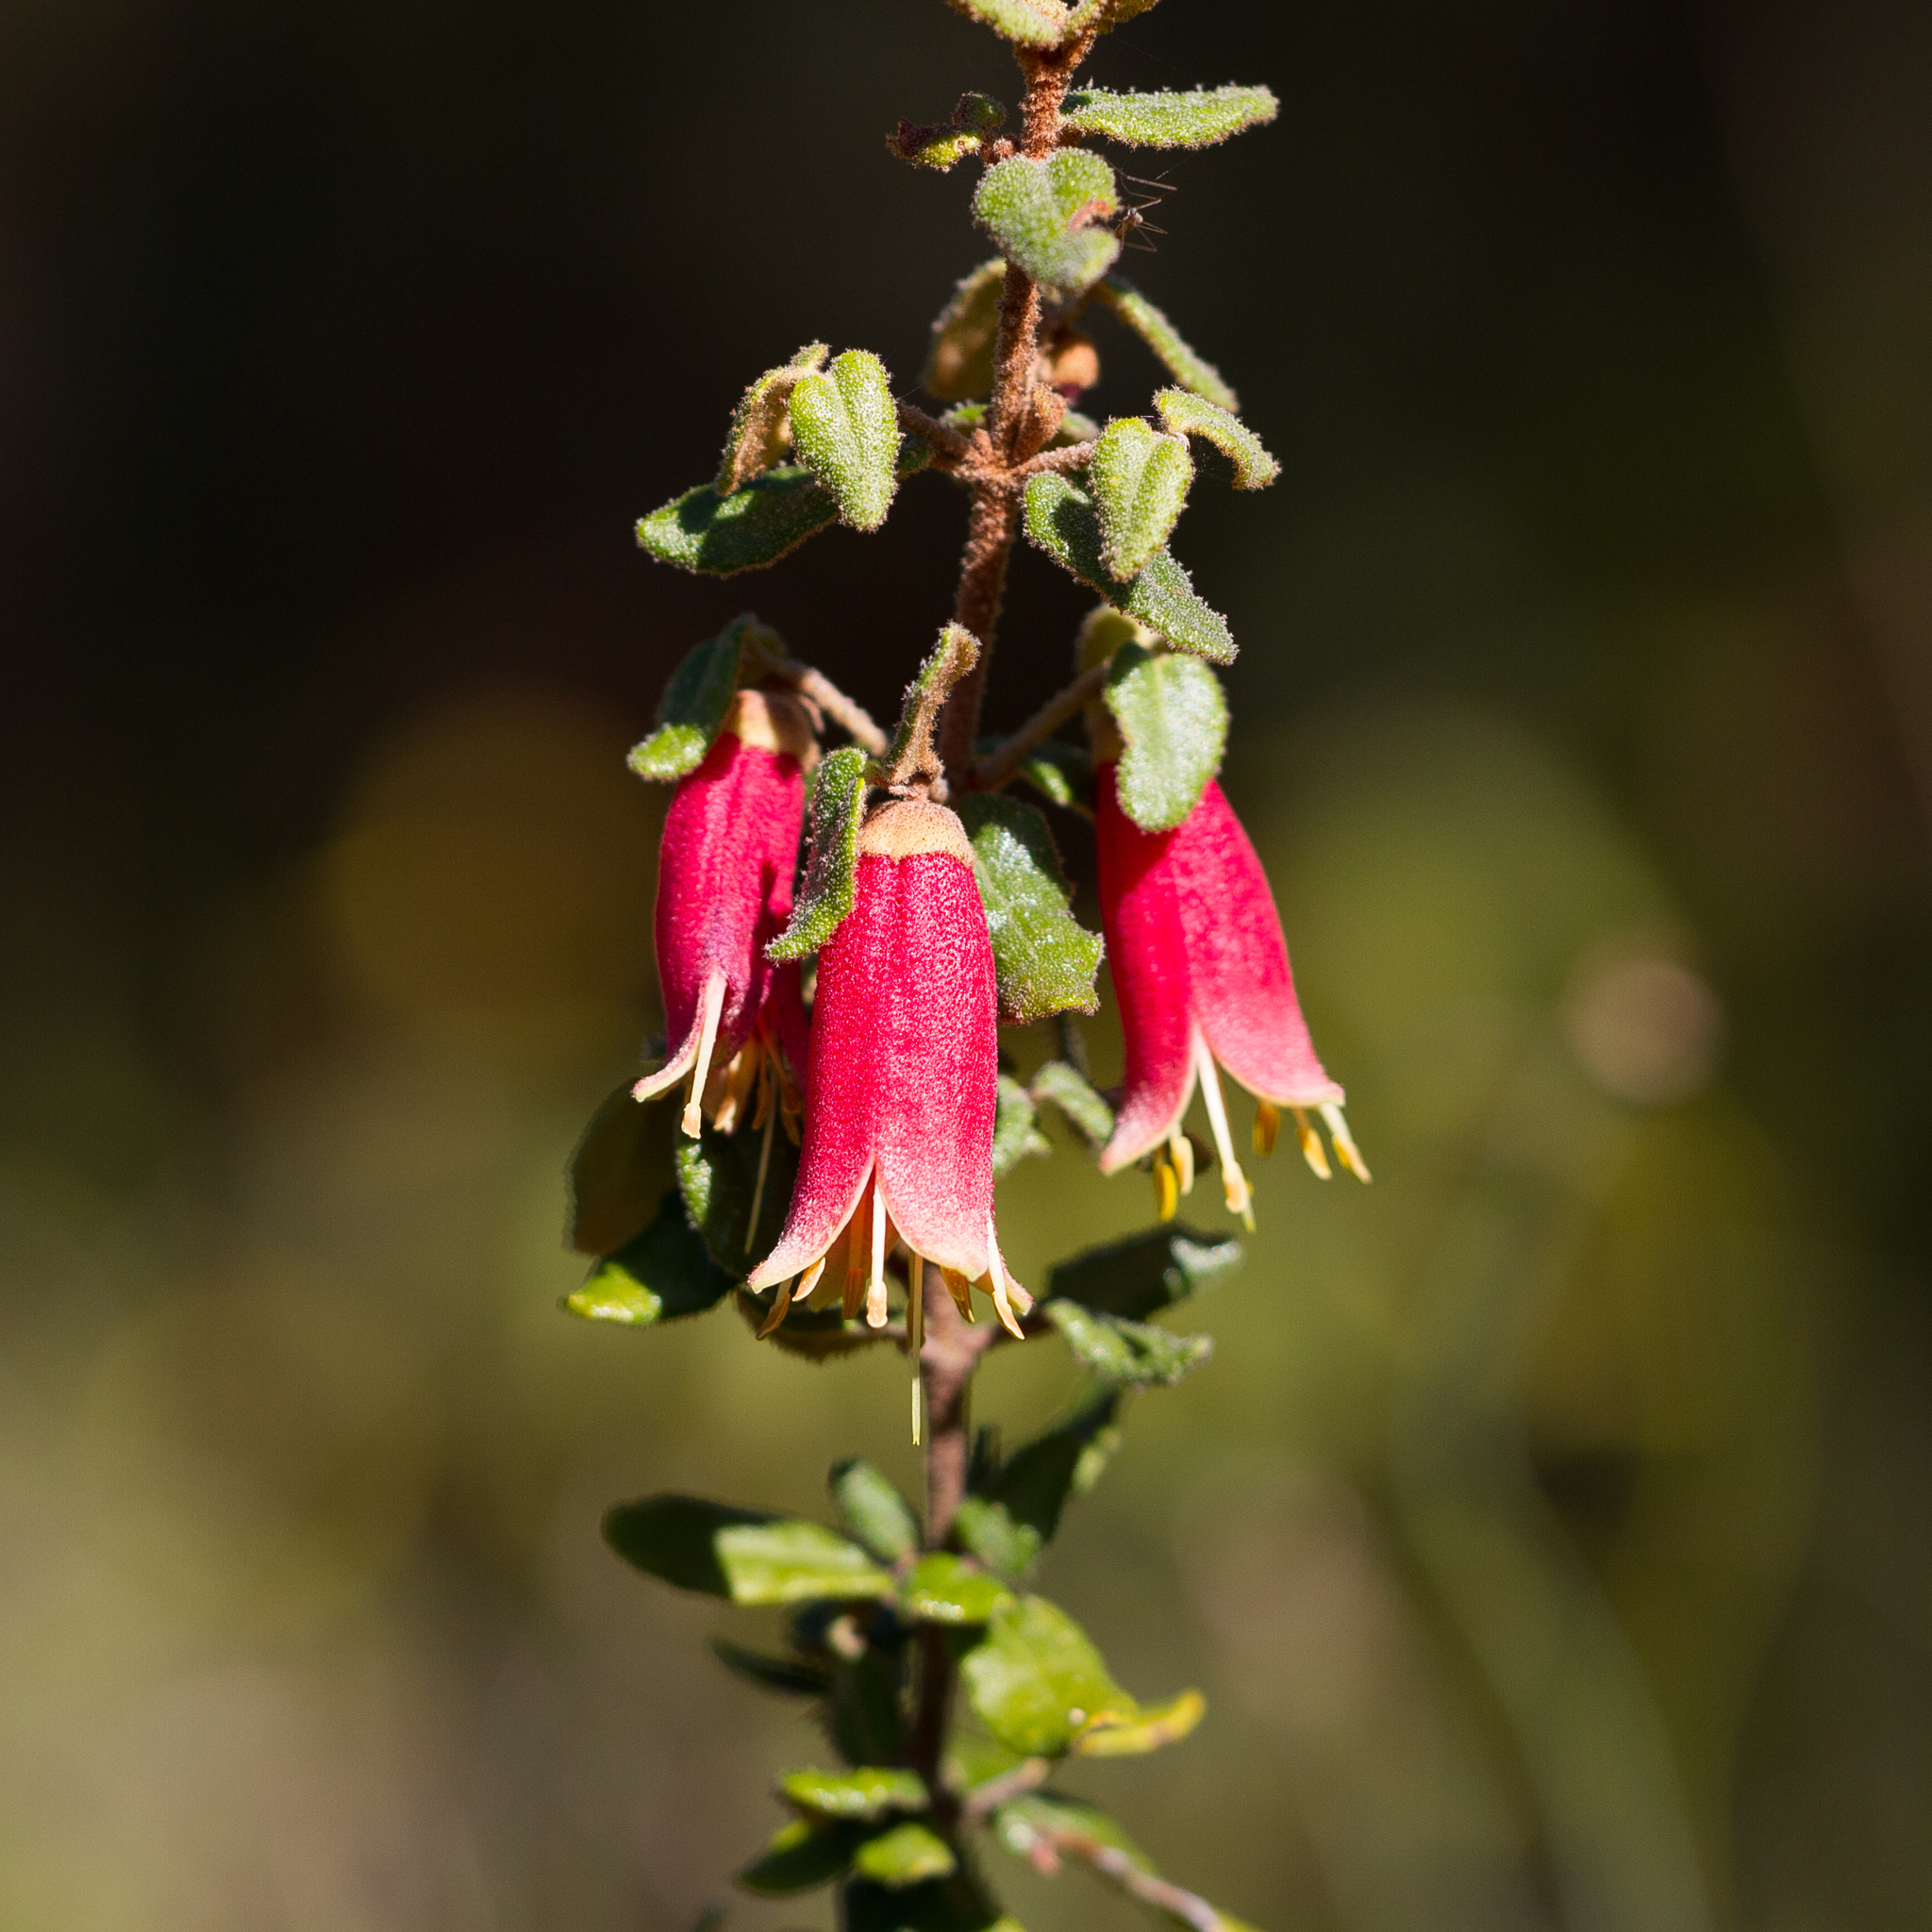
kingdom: Plantae
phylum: Tracheophyta
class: Magnoliopsida
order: Sapindales
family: Rutaceae
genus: Correa
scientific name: Correa reflexa
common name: Common correa
